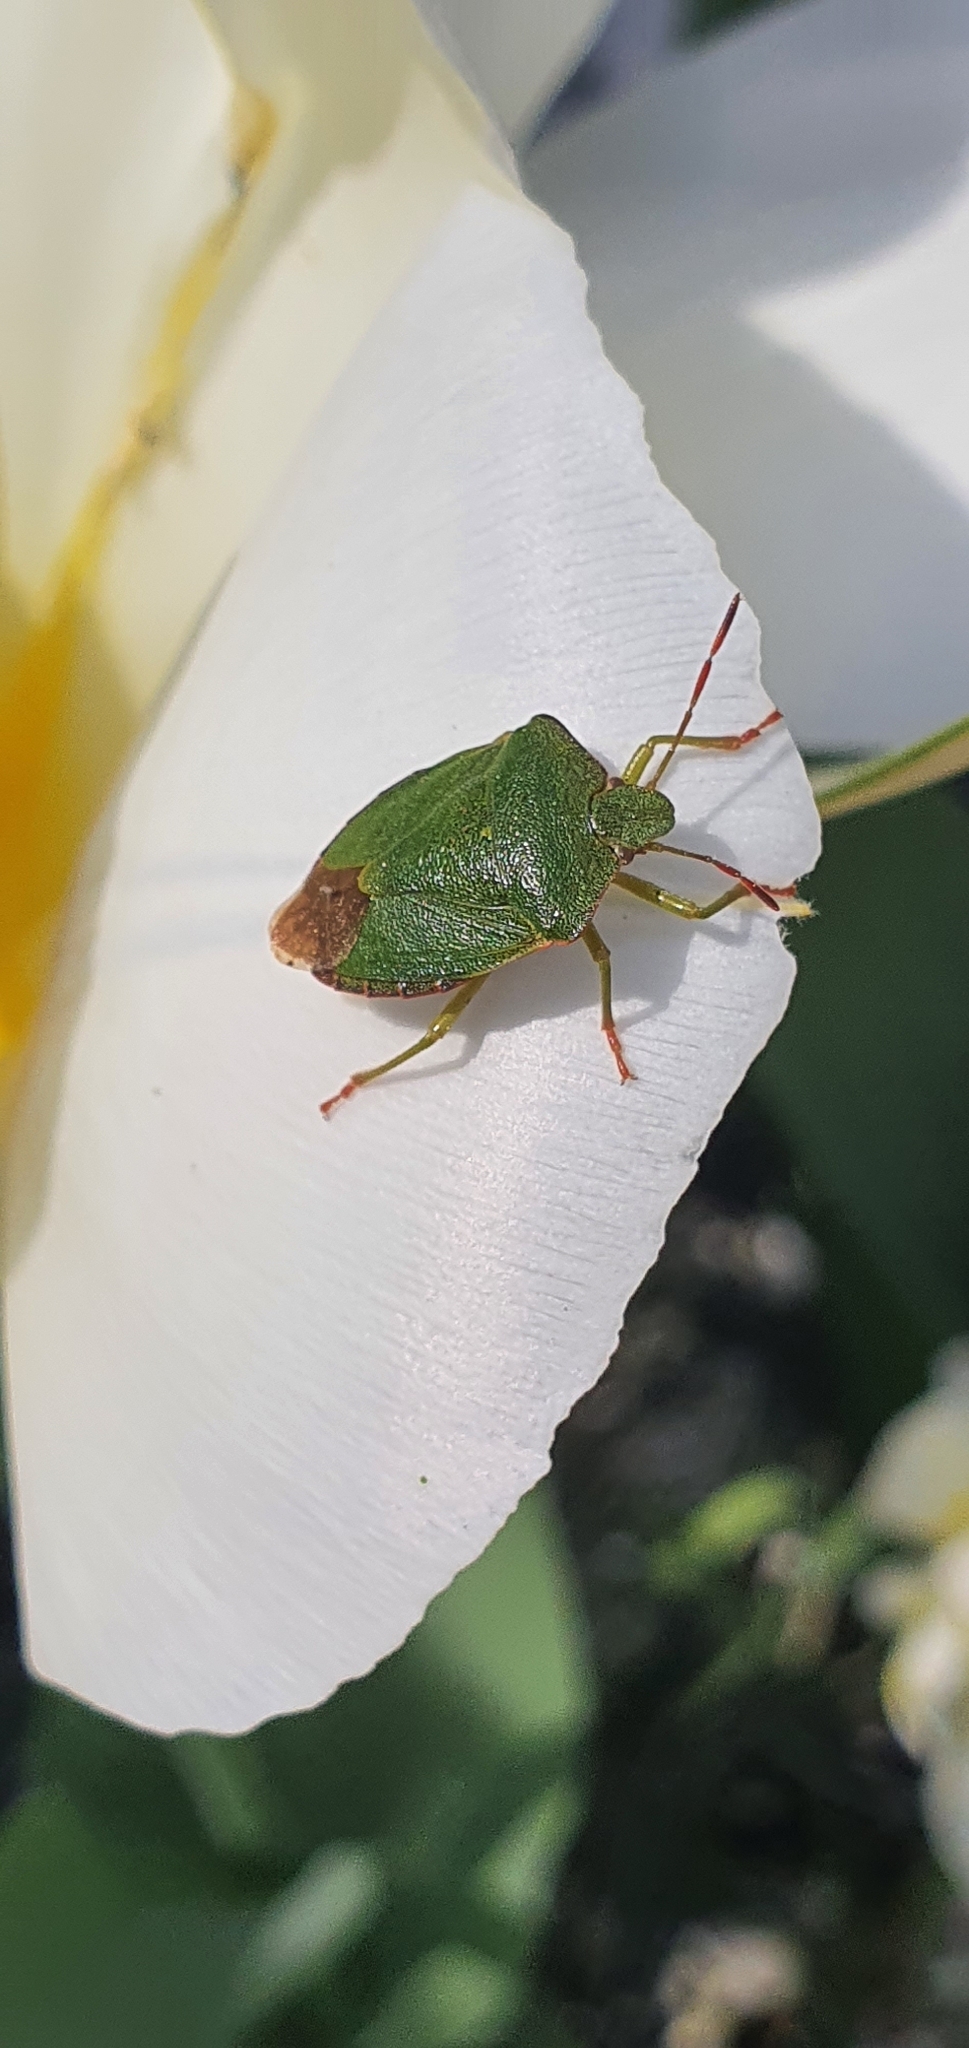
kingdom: Animalia
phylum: Arthropoda
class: Insecta
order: Hemiptera
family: Pentatomidae
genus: Palomena
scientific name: Palomena prasina
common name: Green shieldbug
